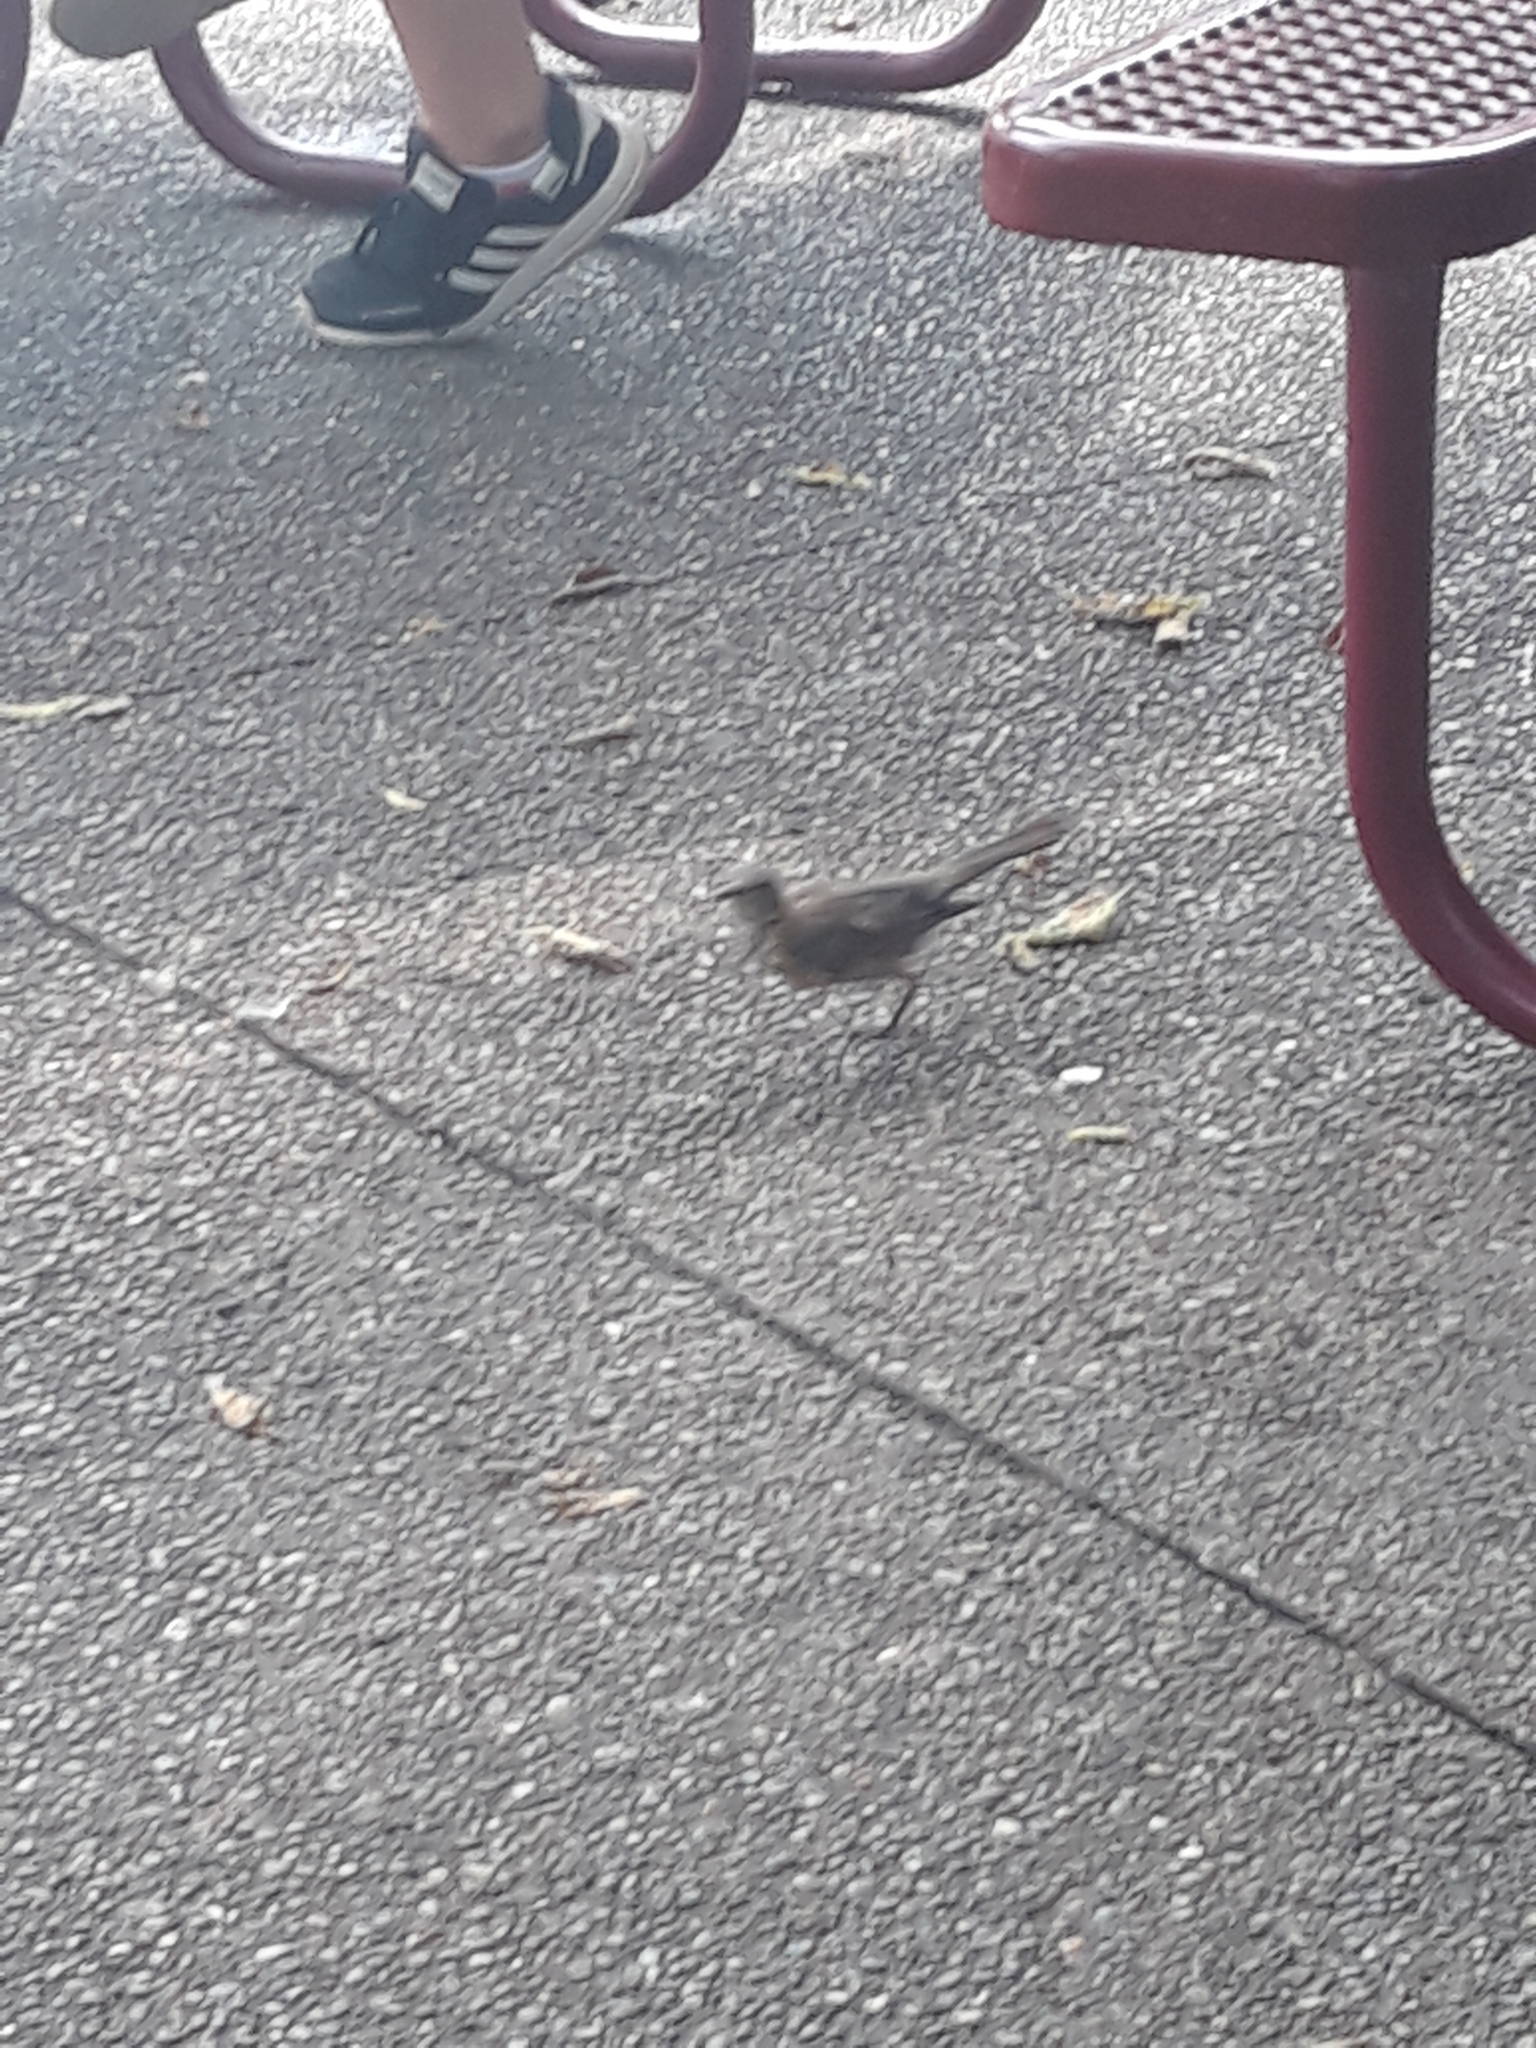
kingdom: Animalia
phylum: Chordata
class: Aves
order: Passeriformes
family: Mimidae
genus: Mimus
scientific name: Mimus polyglottos
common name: Northern mockingbird
